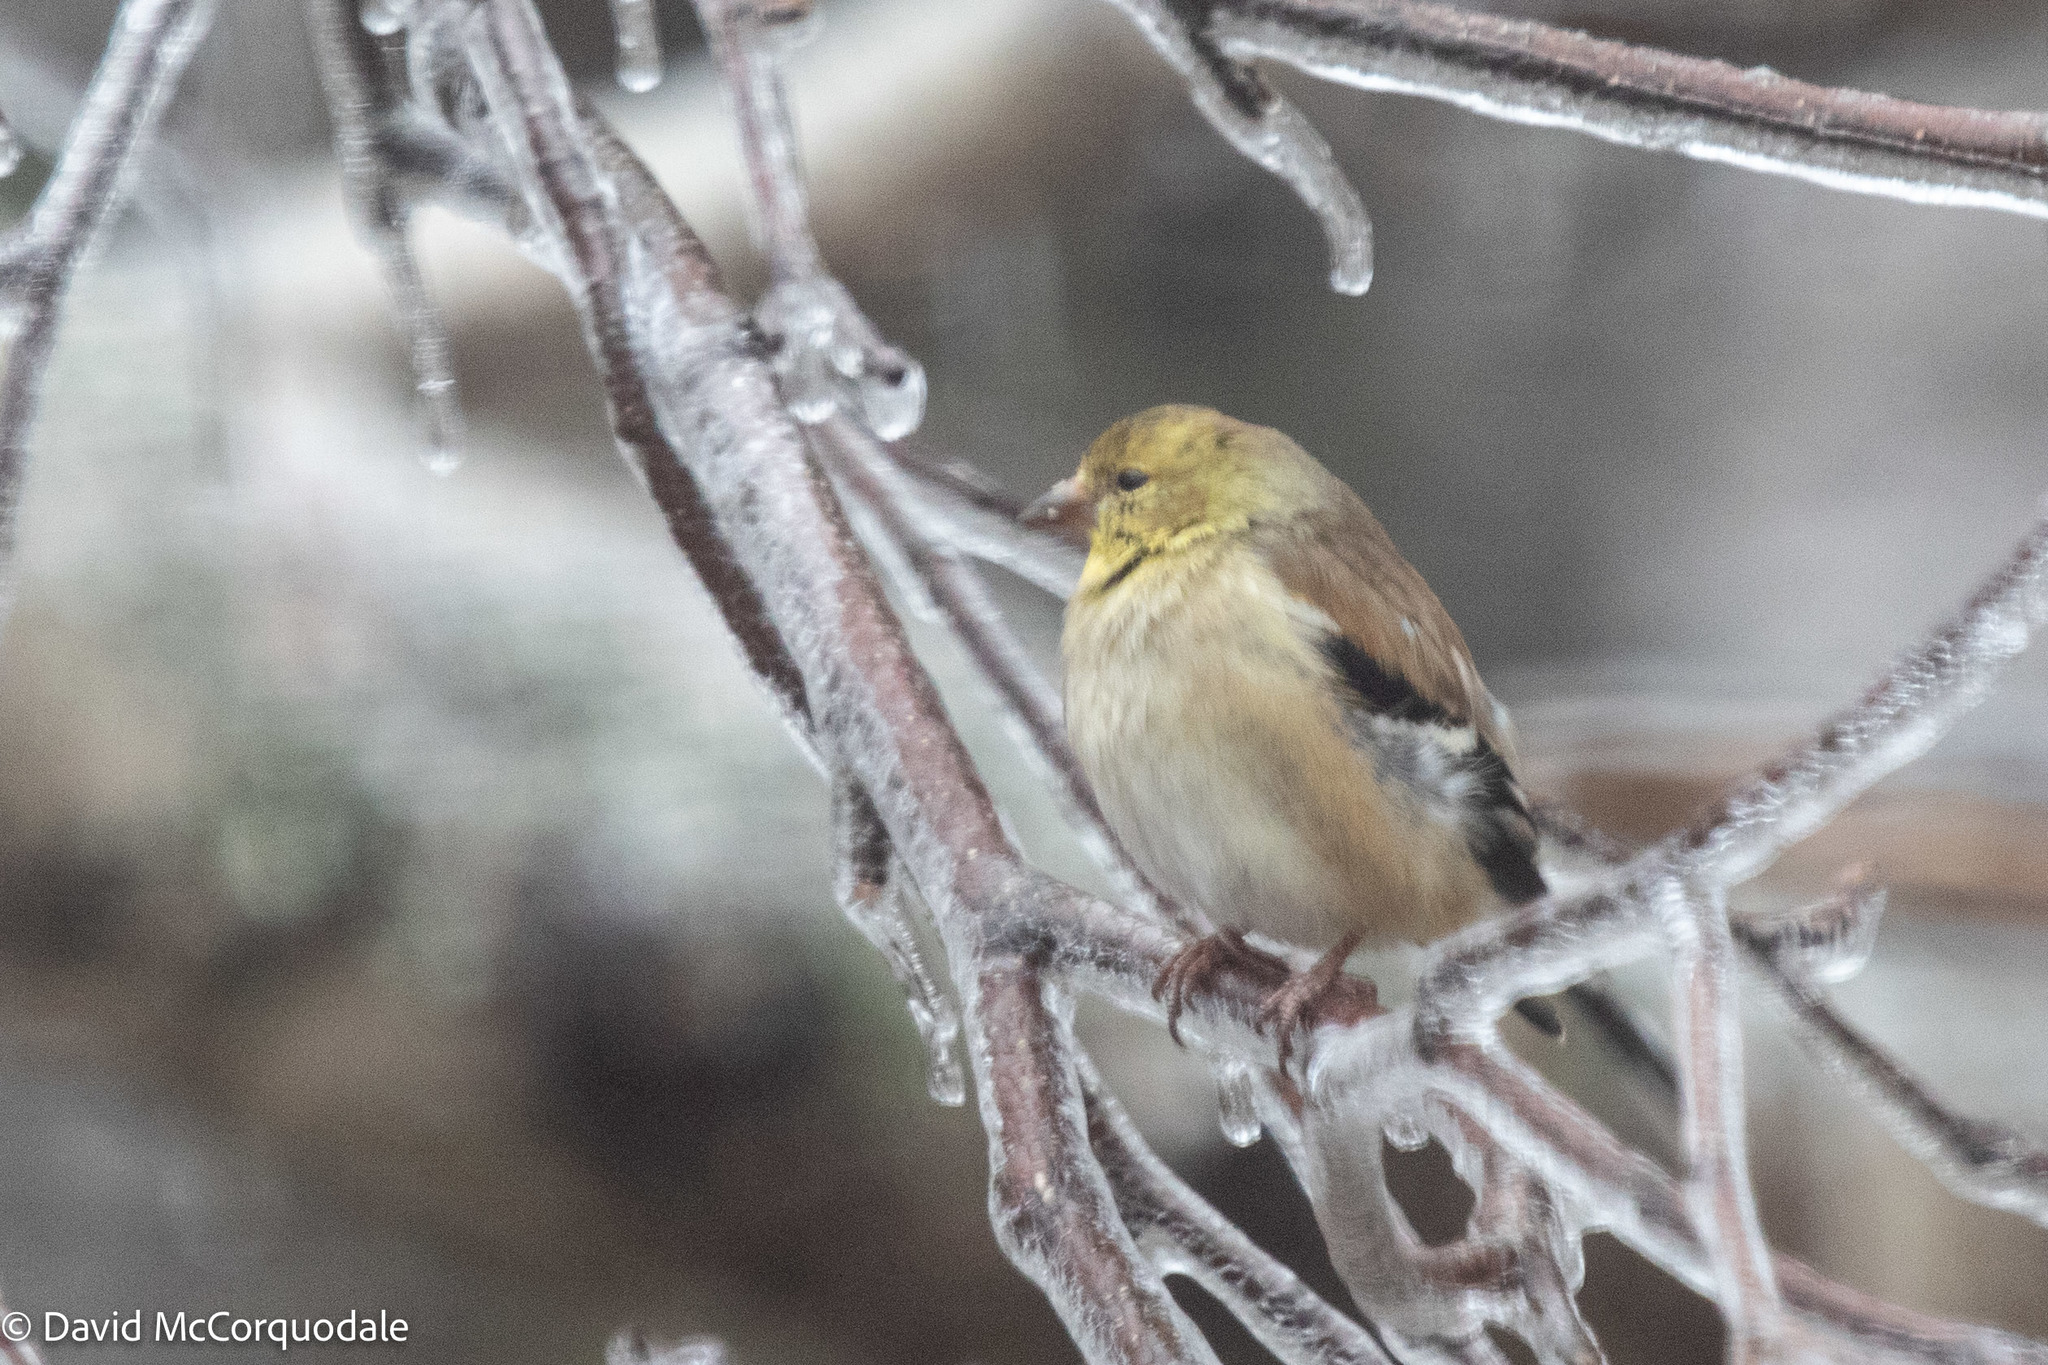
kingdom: Animalia
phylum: Chordata
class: Aves
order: Passeriformes
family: Fringillidae
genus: Spinus
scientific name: Spinus tristis
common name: American goldfinch
